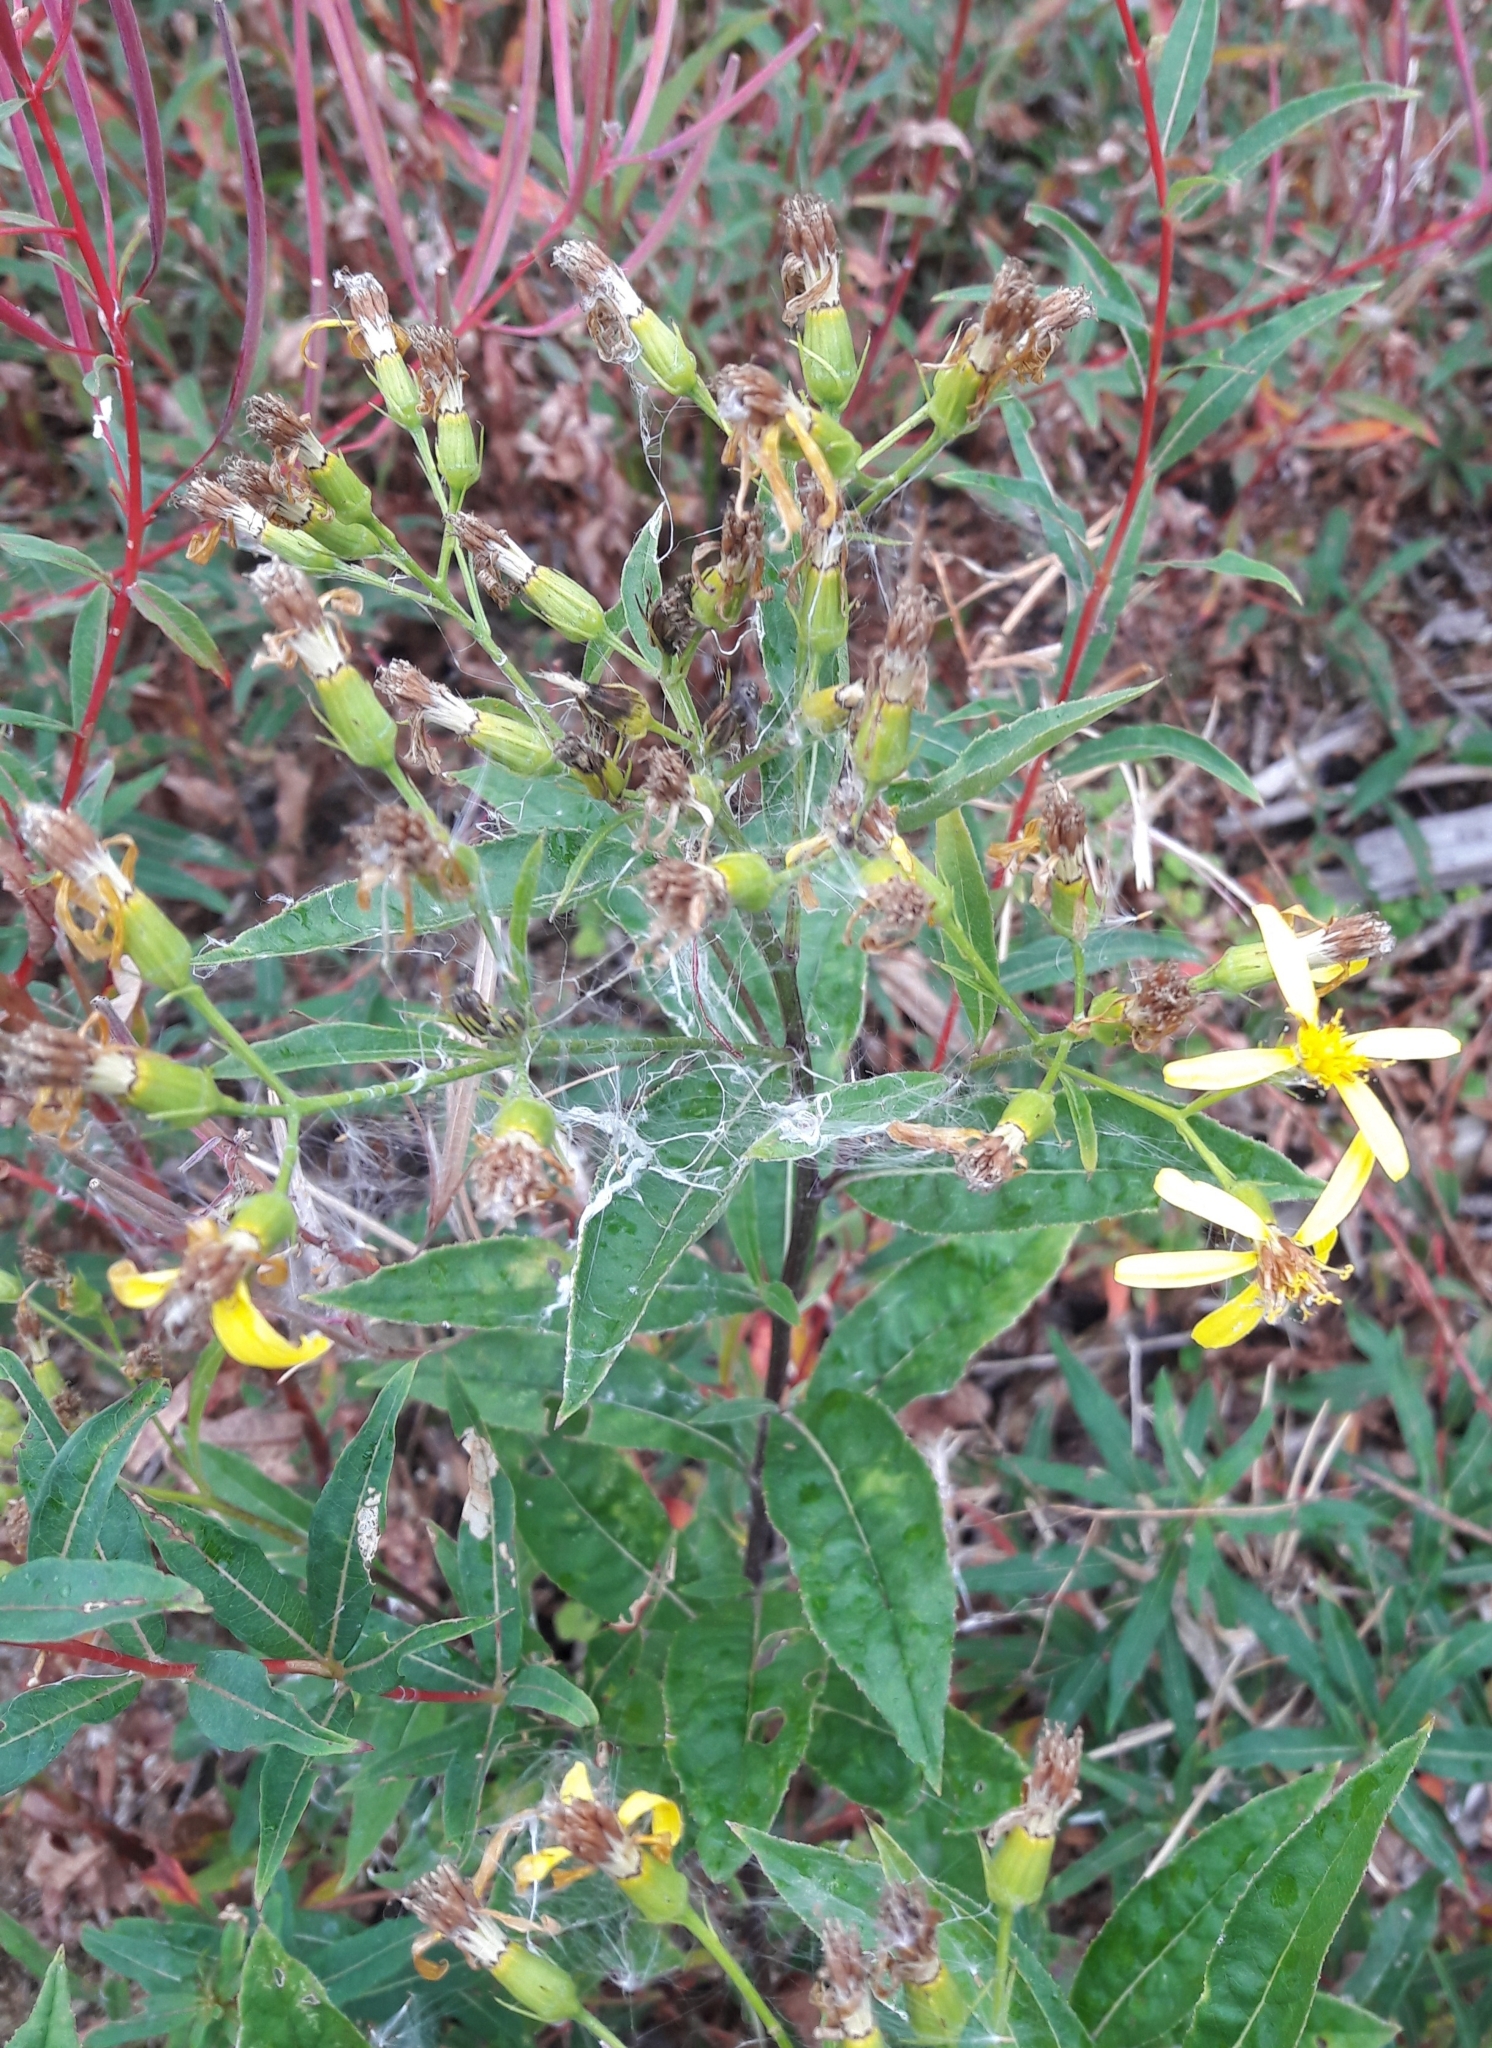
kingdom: Plantae
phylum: Tracheophyta
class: Magnoliopsida
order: Asterales
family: Asteraceae
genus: Senecio
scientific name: Senecio ovatus
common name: Wood ragwort
